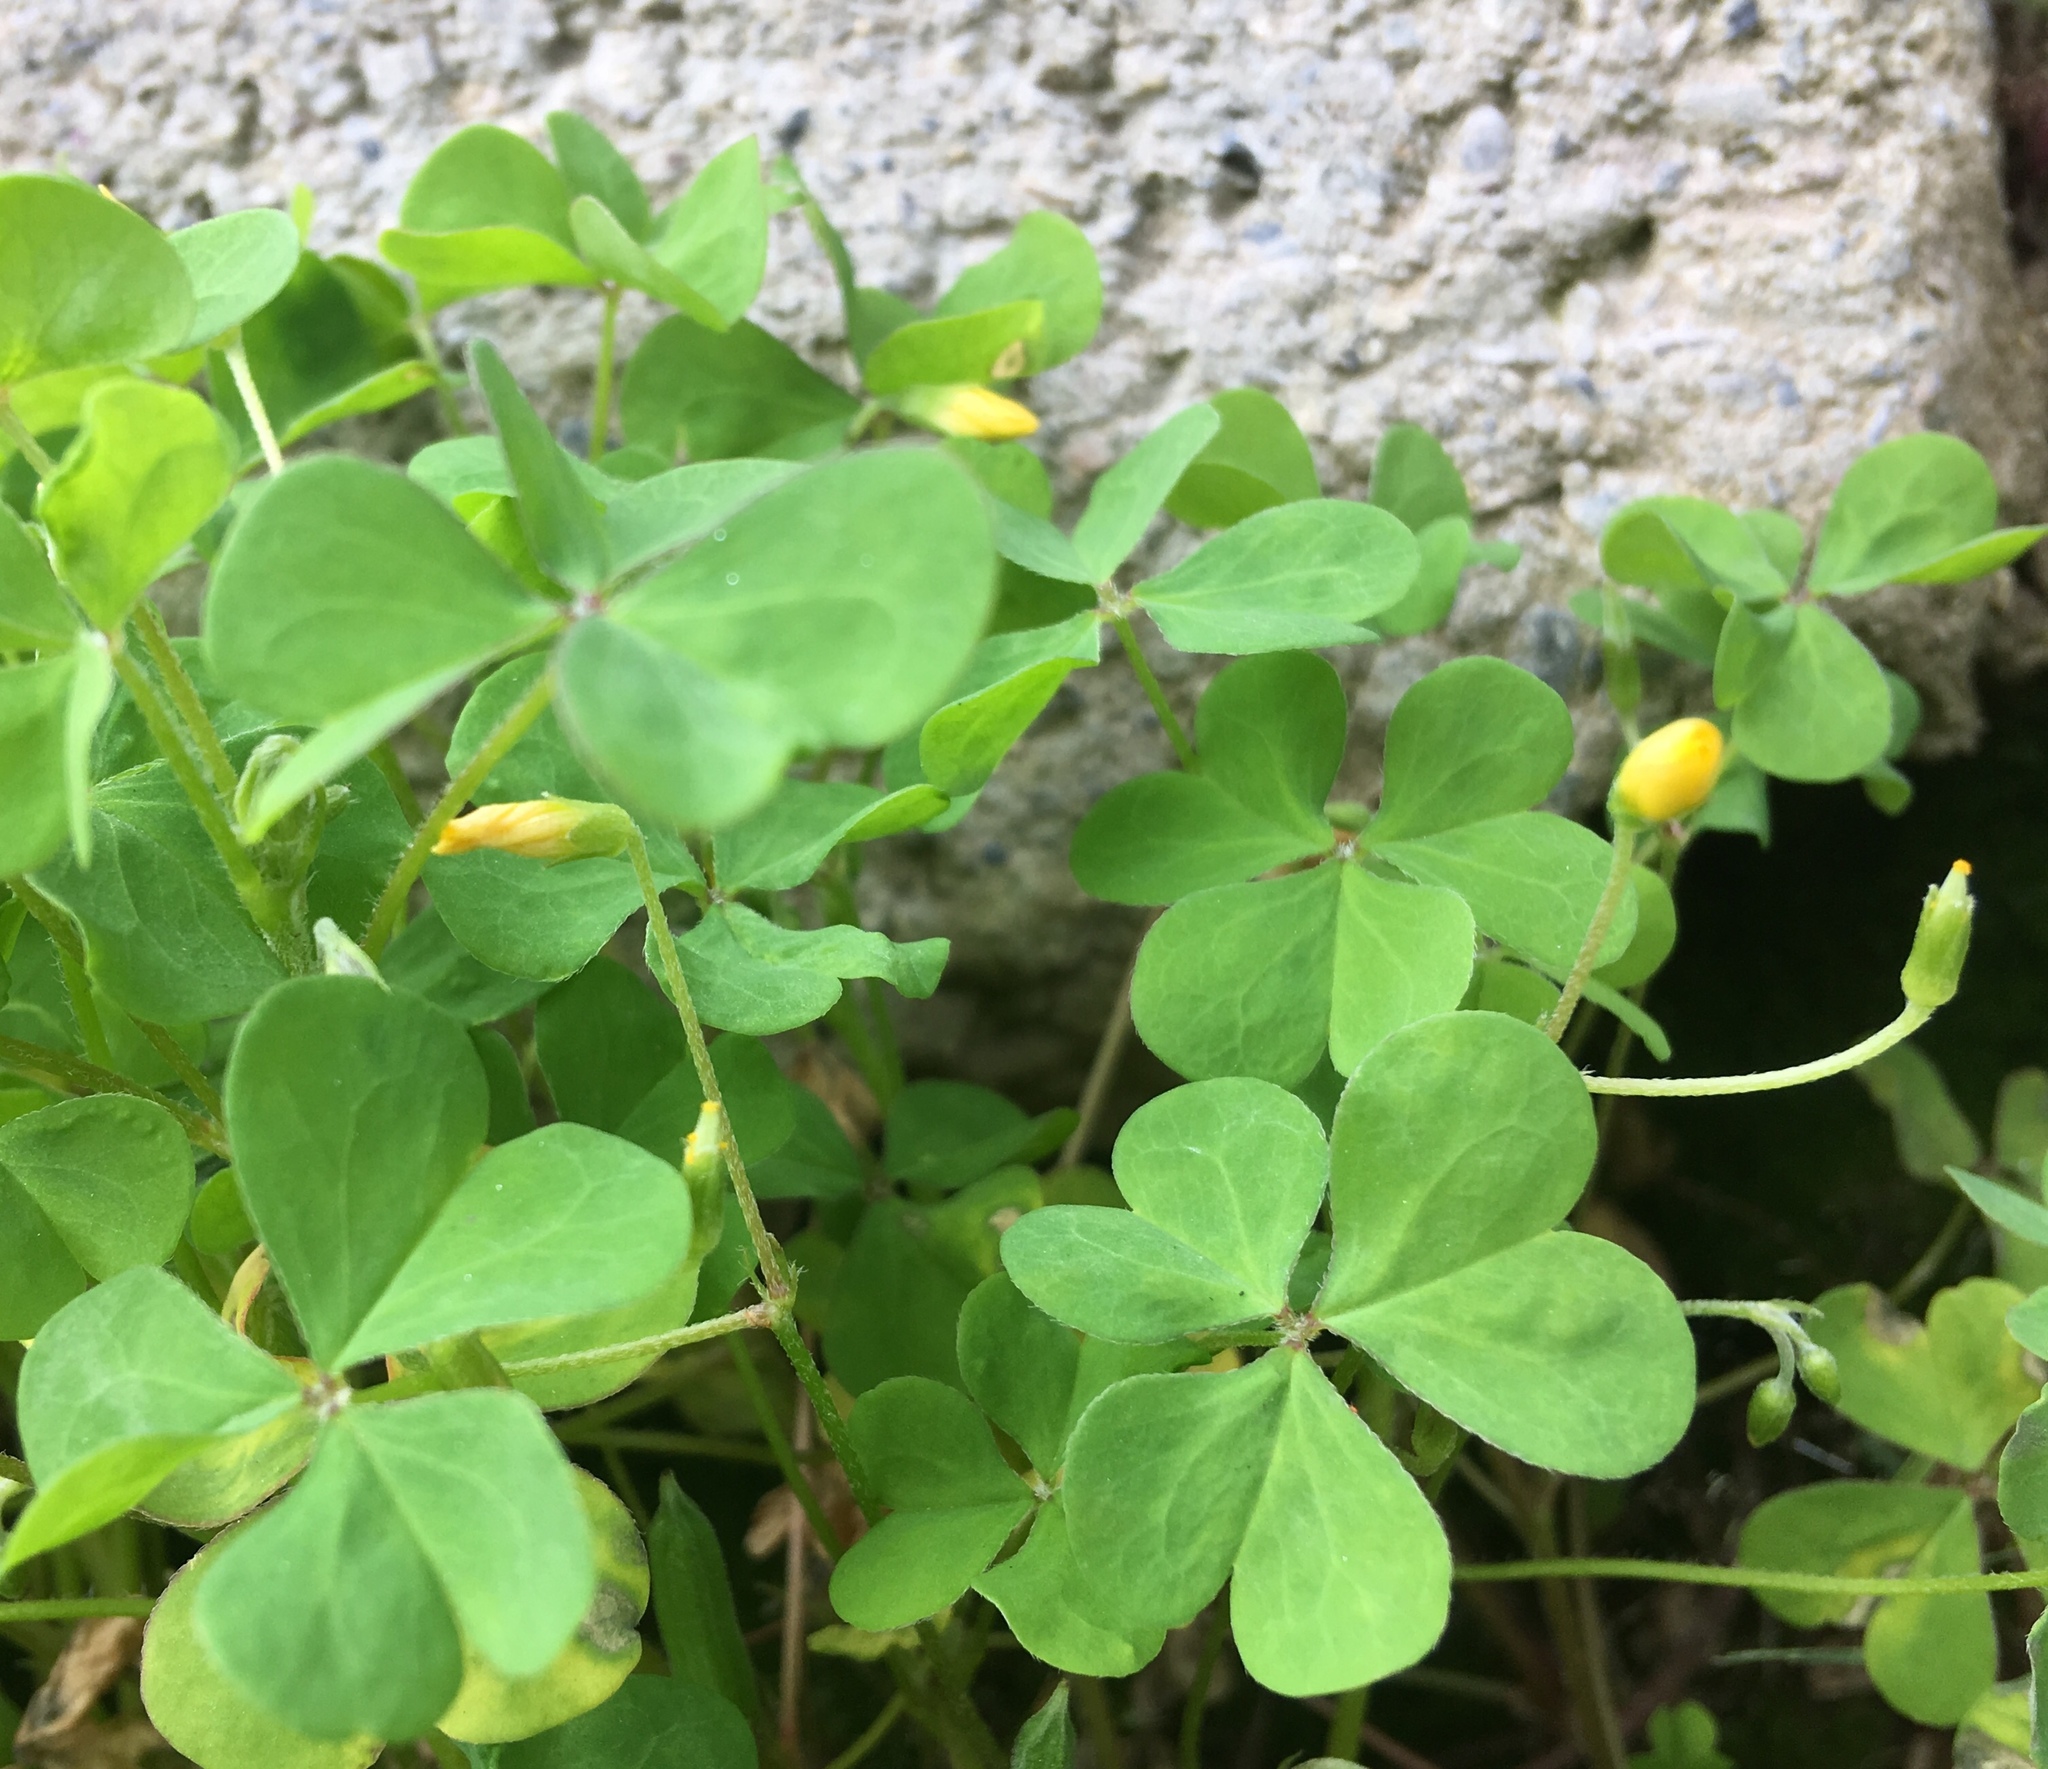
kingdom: Plantae
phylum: Tracheophyta
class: Magnoliopsida
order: Oxalidales
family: Oxalidaceae
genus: Oxalis
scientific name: Oxalis corniculata
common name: Procumbent yellow-sorrel
